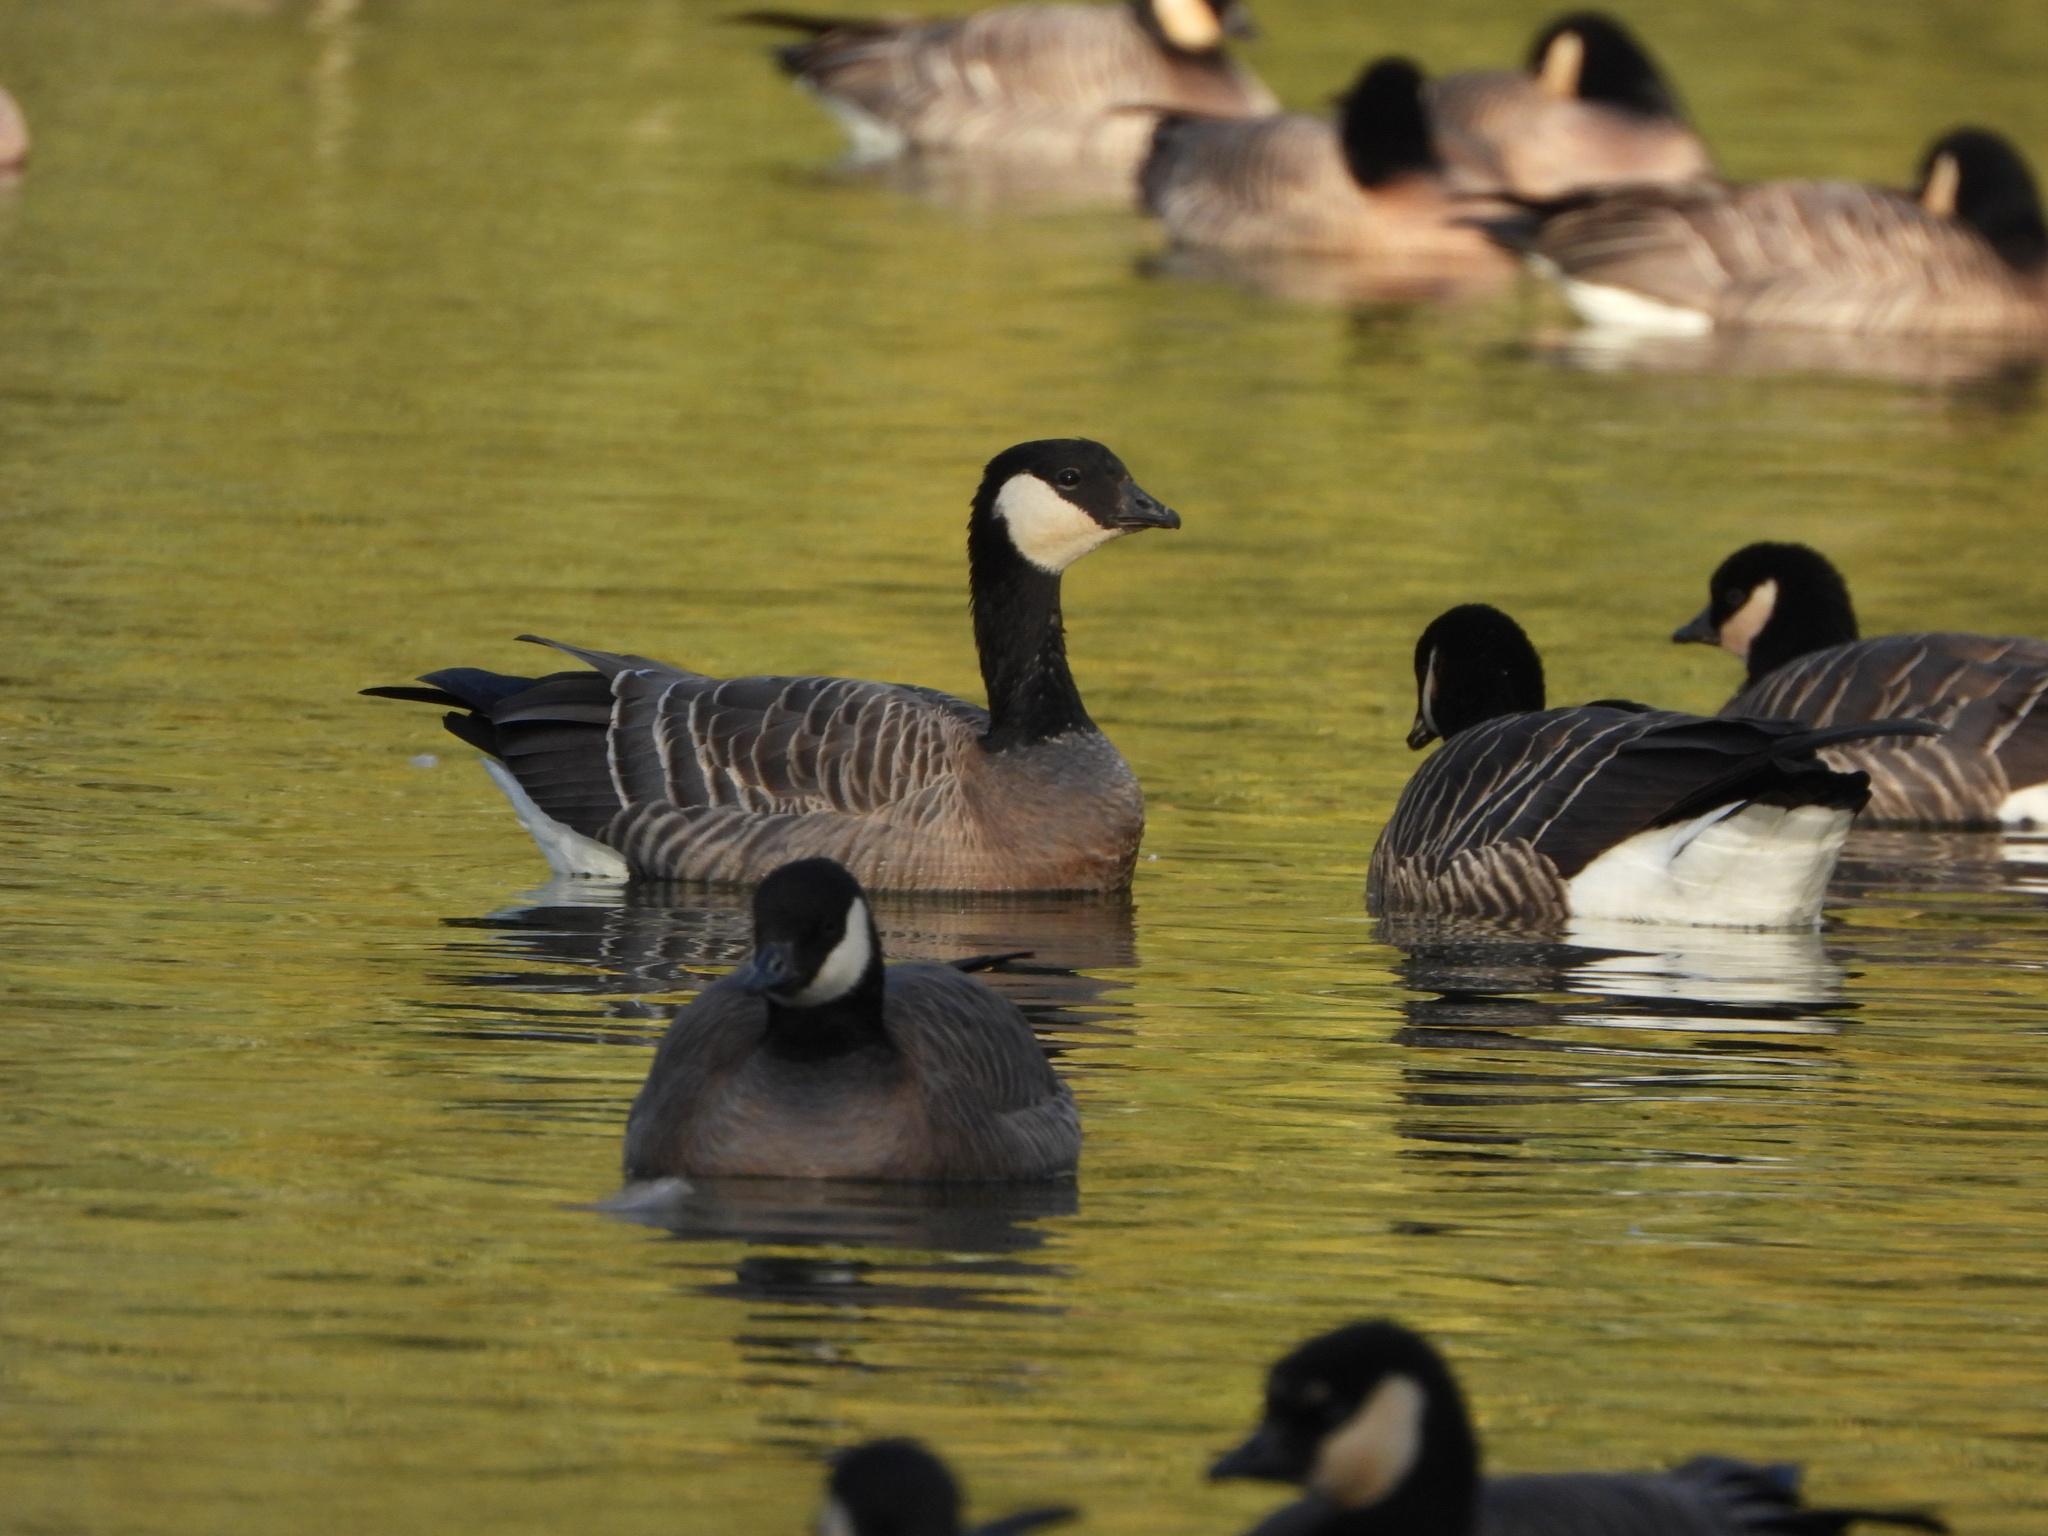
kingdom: Animalia
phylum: Chordata
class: Aves
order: Anseriformes
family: Anatidae
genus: Branta
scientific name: Branta hutchinsii
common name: Cackling goose
